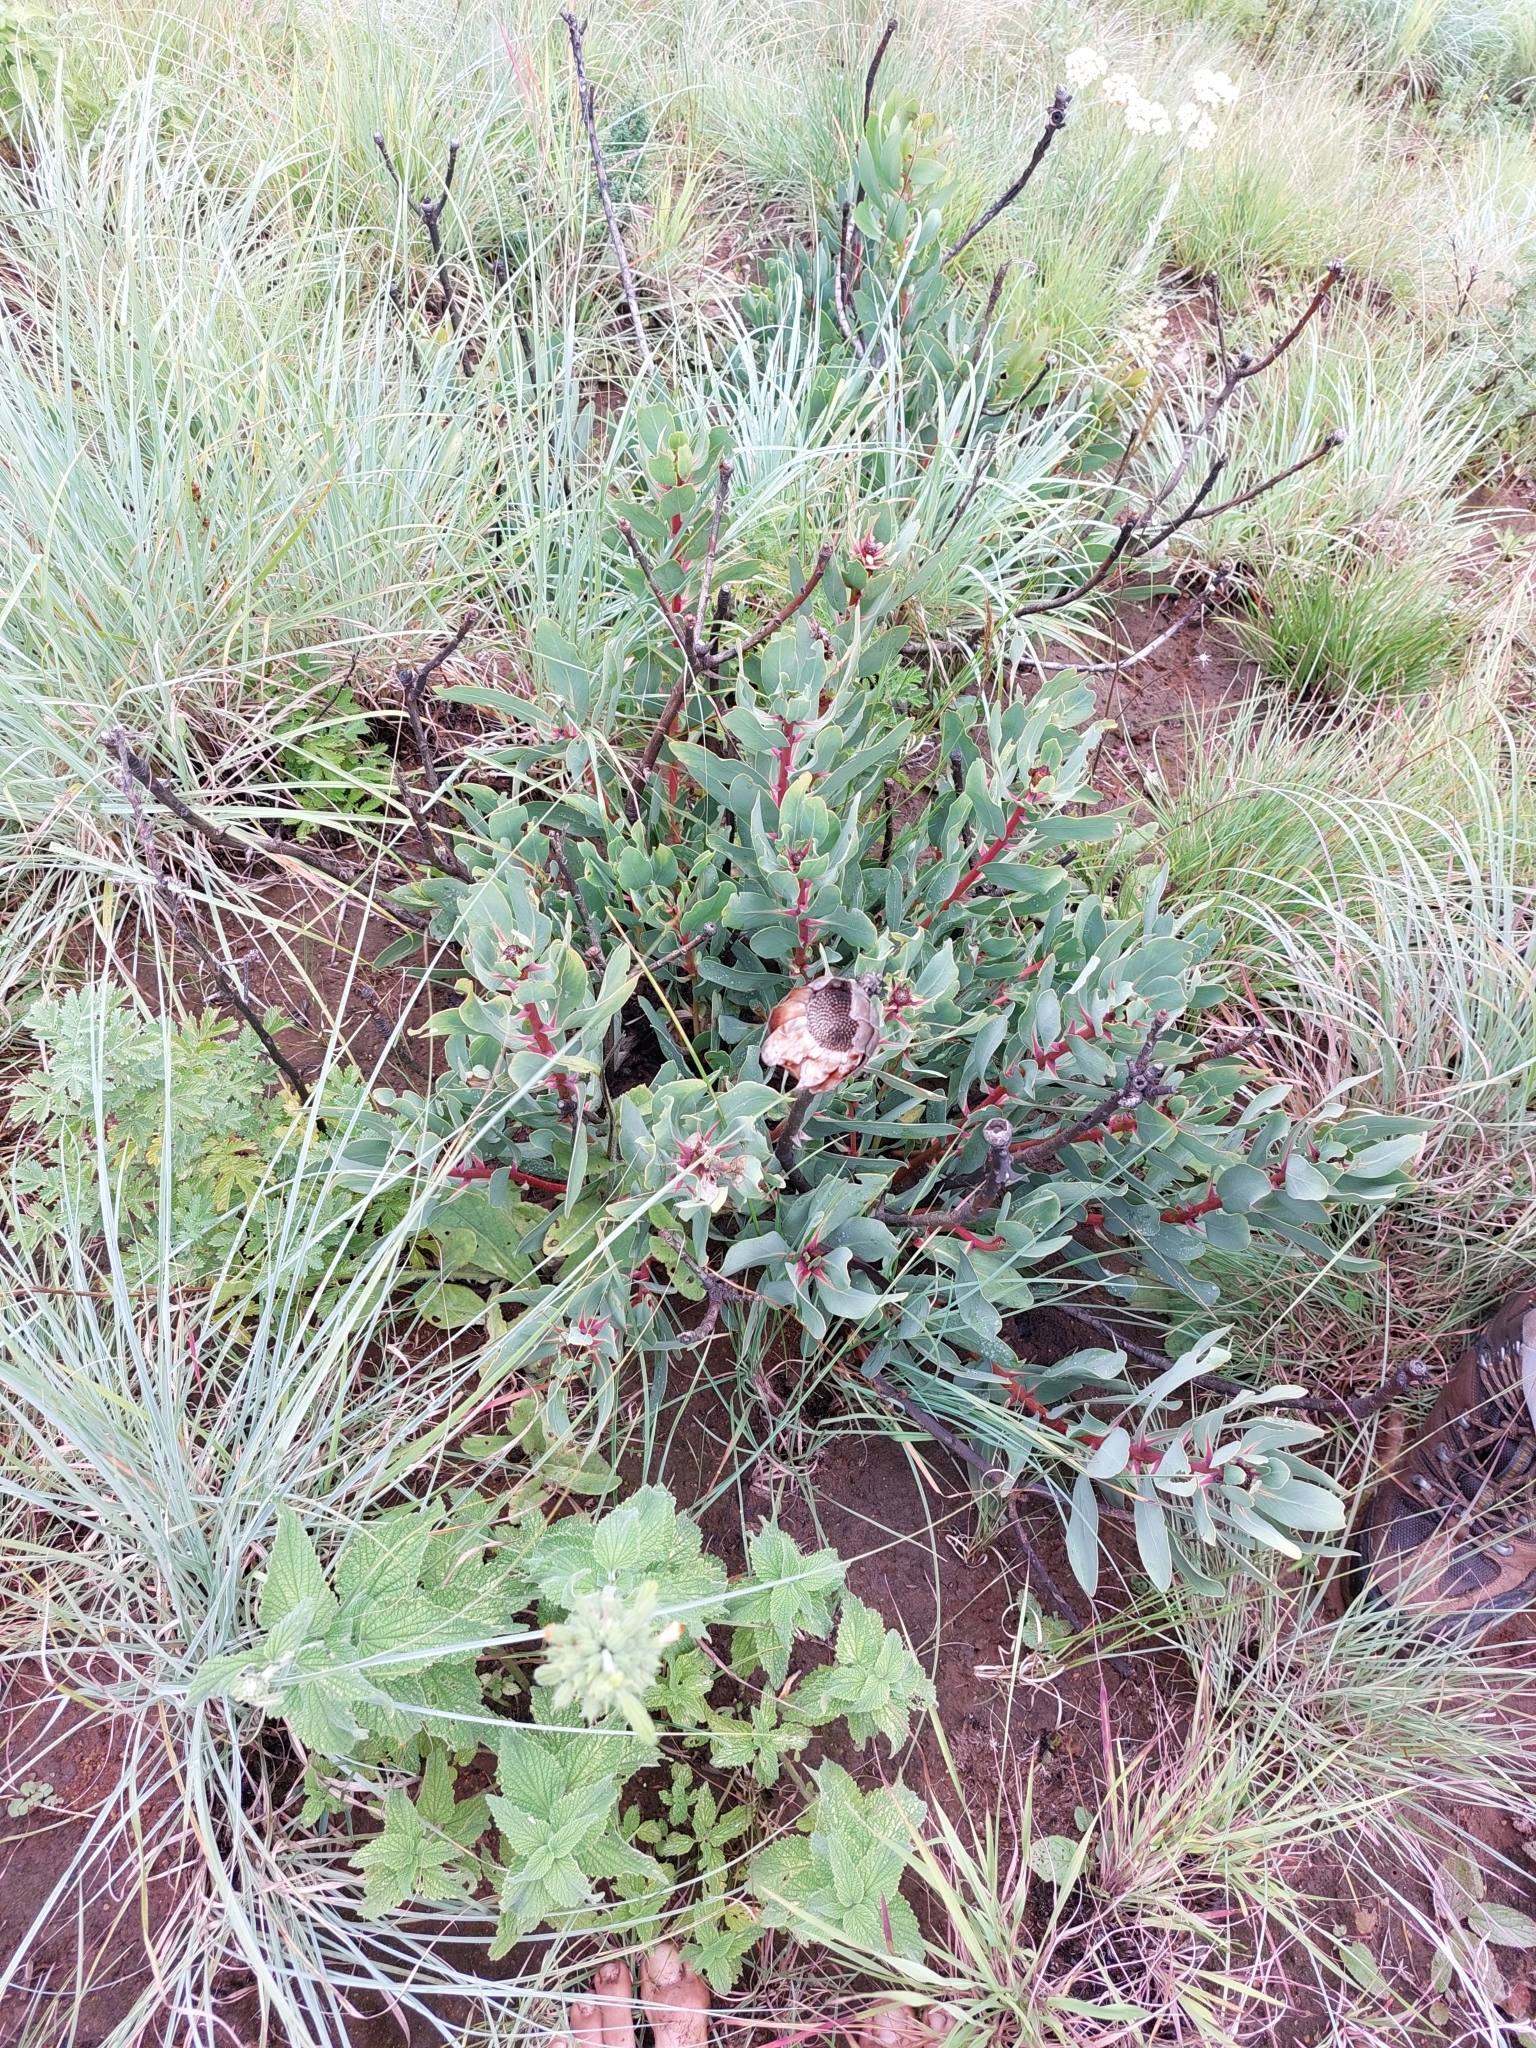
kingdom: Plantae
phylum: Tracheophyta
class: Magnoliopsida
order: Proteales
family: Proteaceae
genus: Protea
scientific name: Protea dracomontana
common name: Drakensberg dwarf sugarbush
